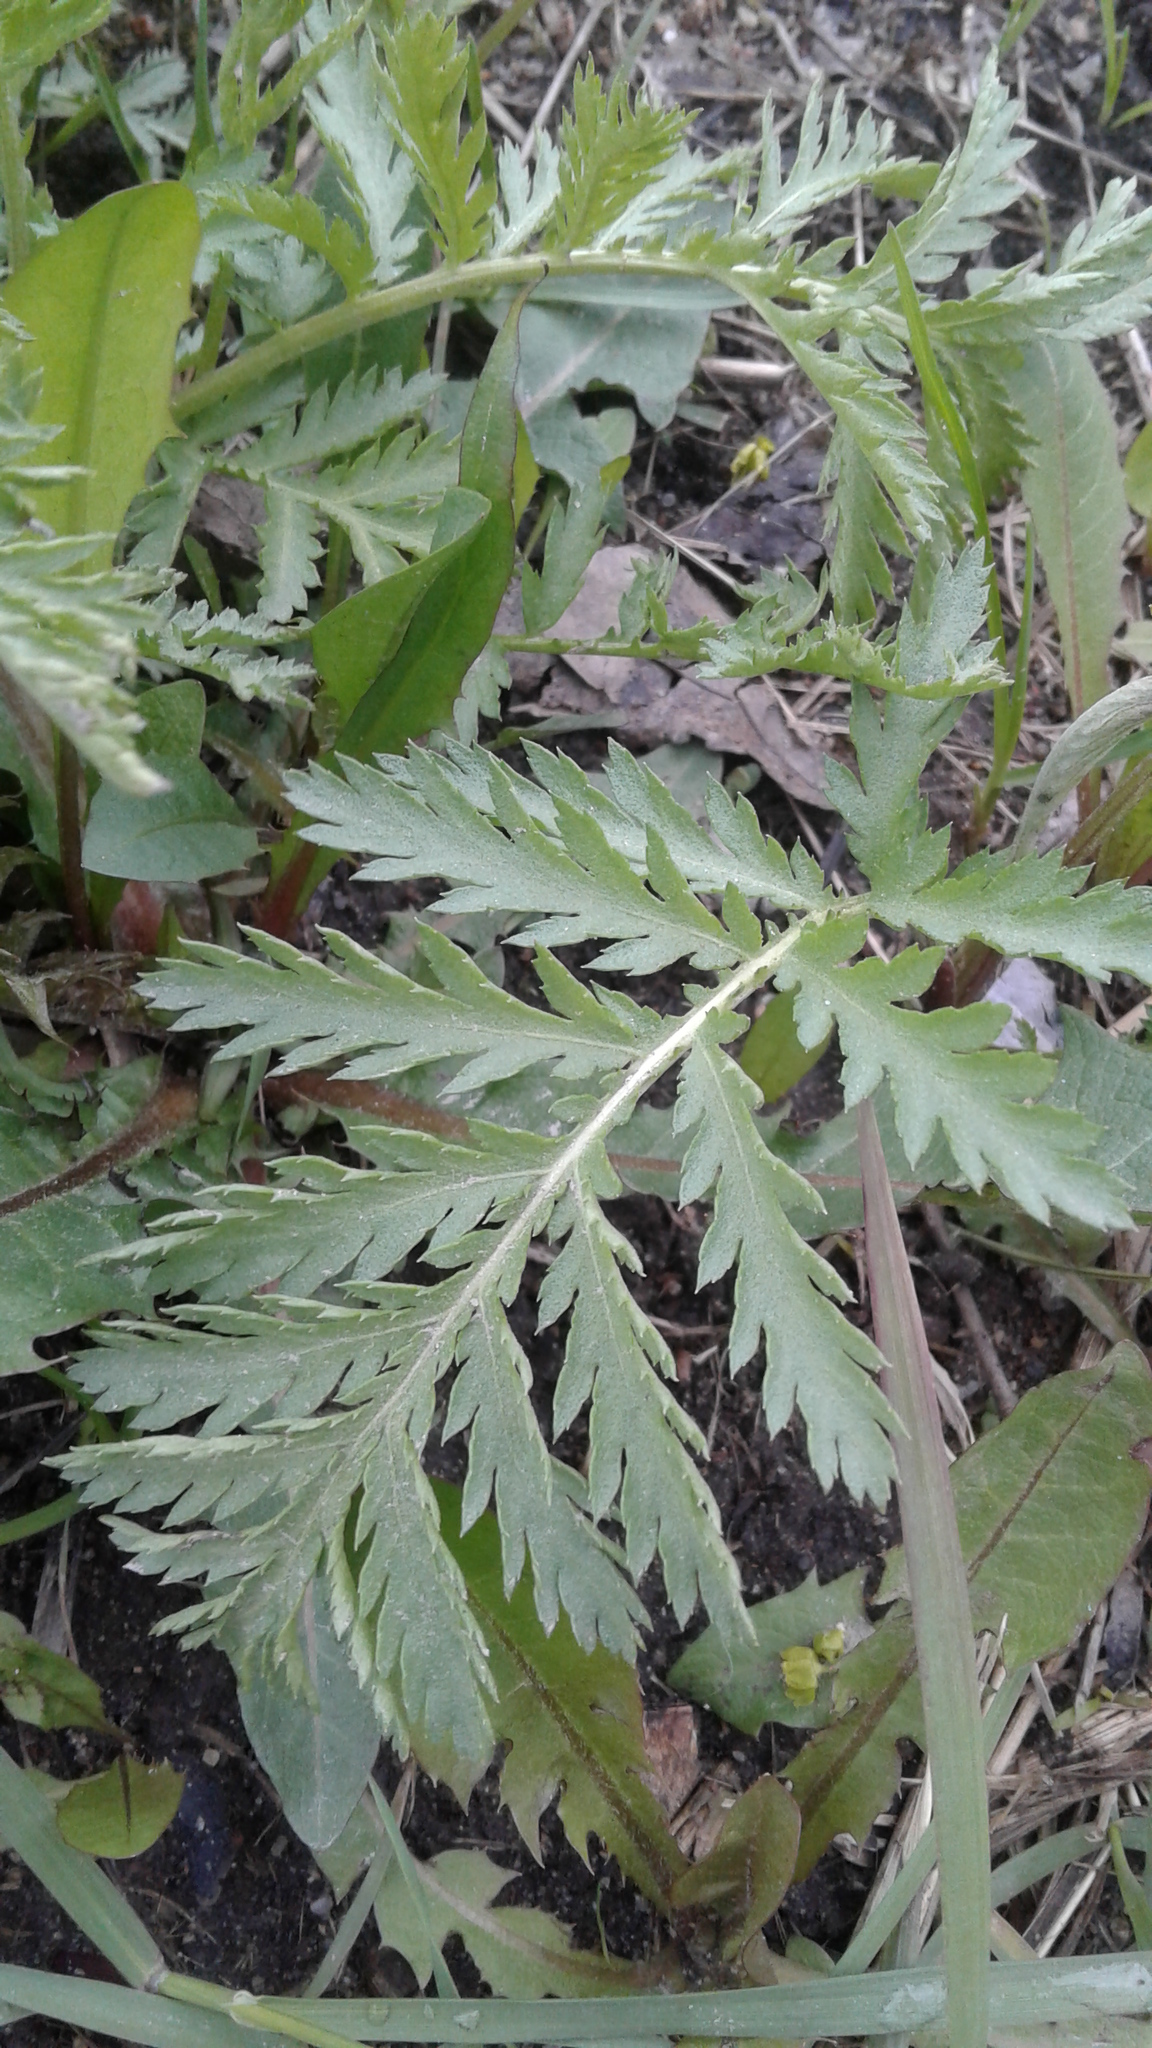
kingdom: Plantae
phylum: Tracheophyta
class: Magnoliopsida
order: Asterales
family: Asteraceae
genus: Tanacetum
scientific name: Tanacetum vulgare
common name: Common tansy
